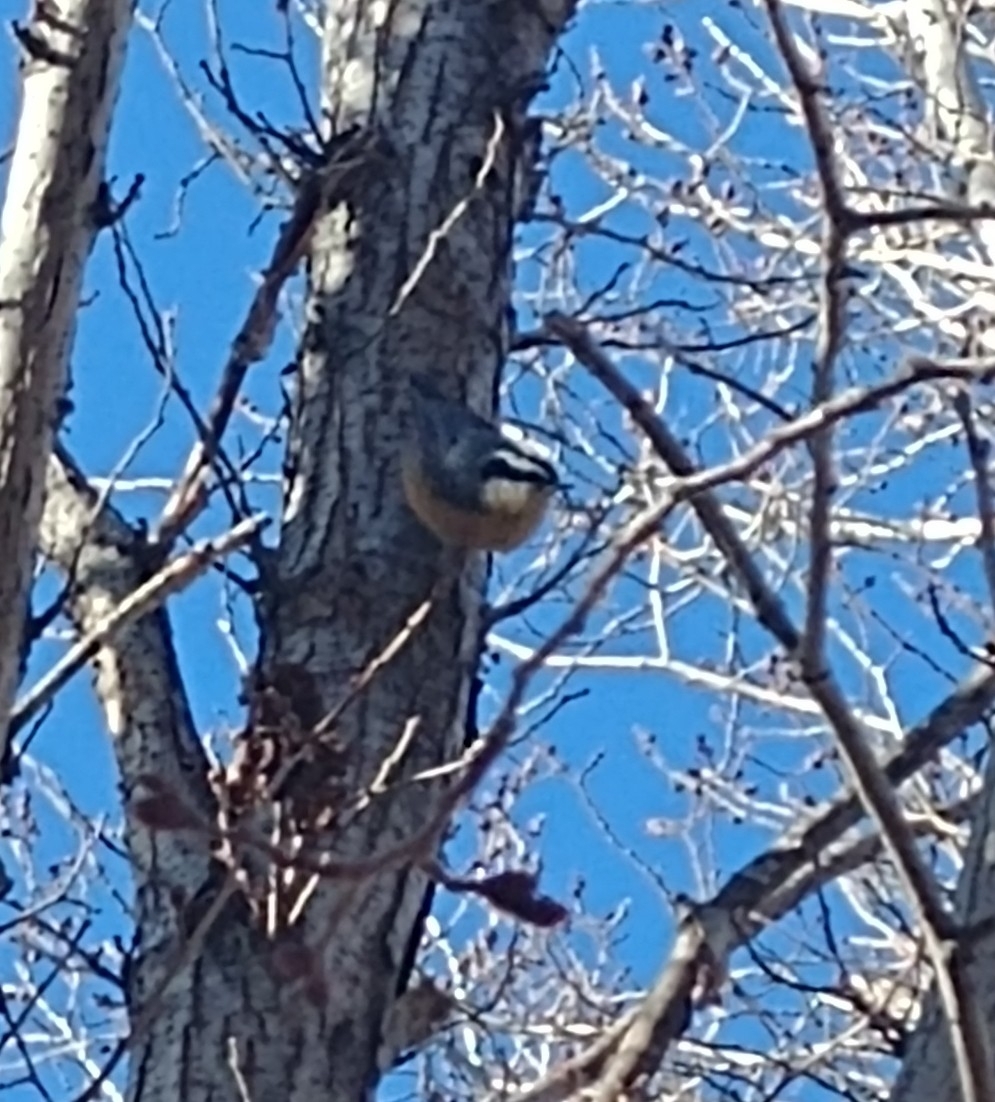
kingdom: Animalia
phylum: Chordata
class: Aves
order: Passeriformes
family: Sittidae
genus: Sitta
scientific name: Sitta canadensis
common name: Red-breasted nuthatch
